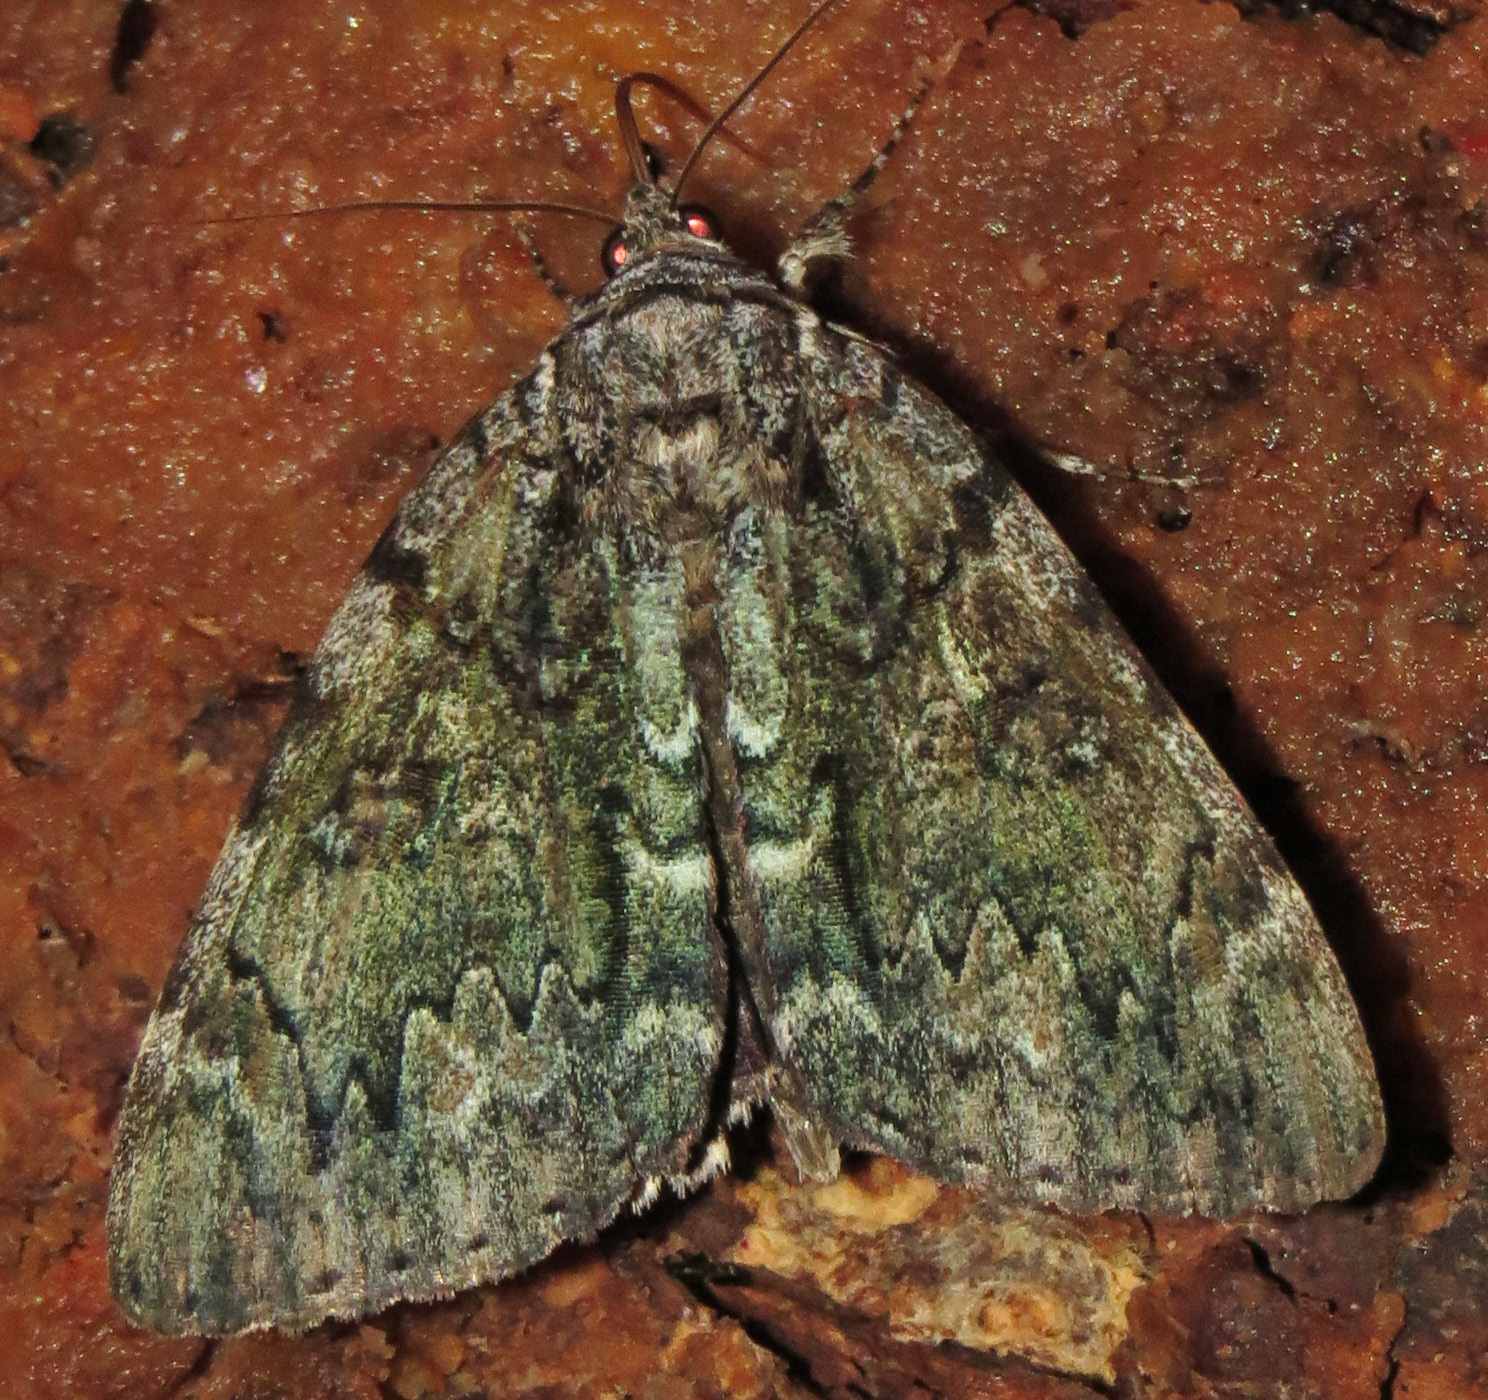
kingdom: Animalia
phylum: Arthropoda
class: Insecta
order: Lepidoptera
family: Erebidae
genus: Catocala
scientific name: Catocala lacrymosa
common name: Tearful underwing
